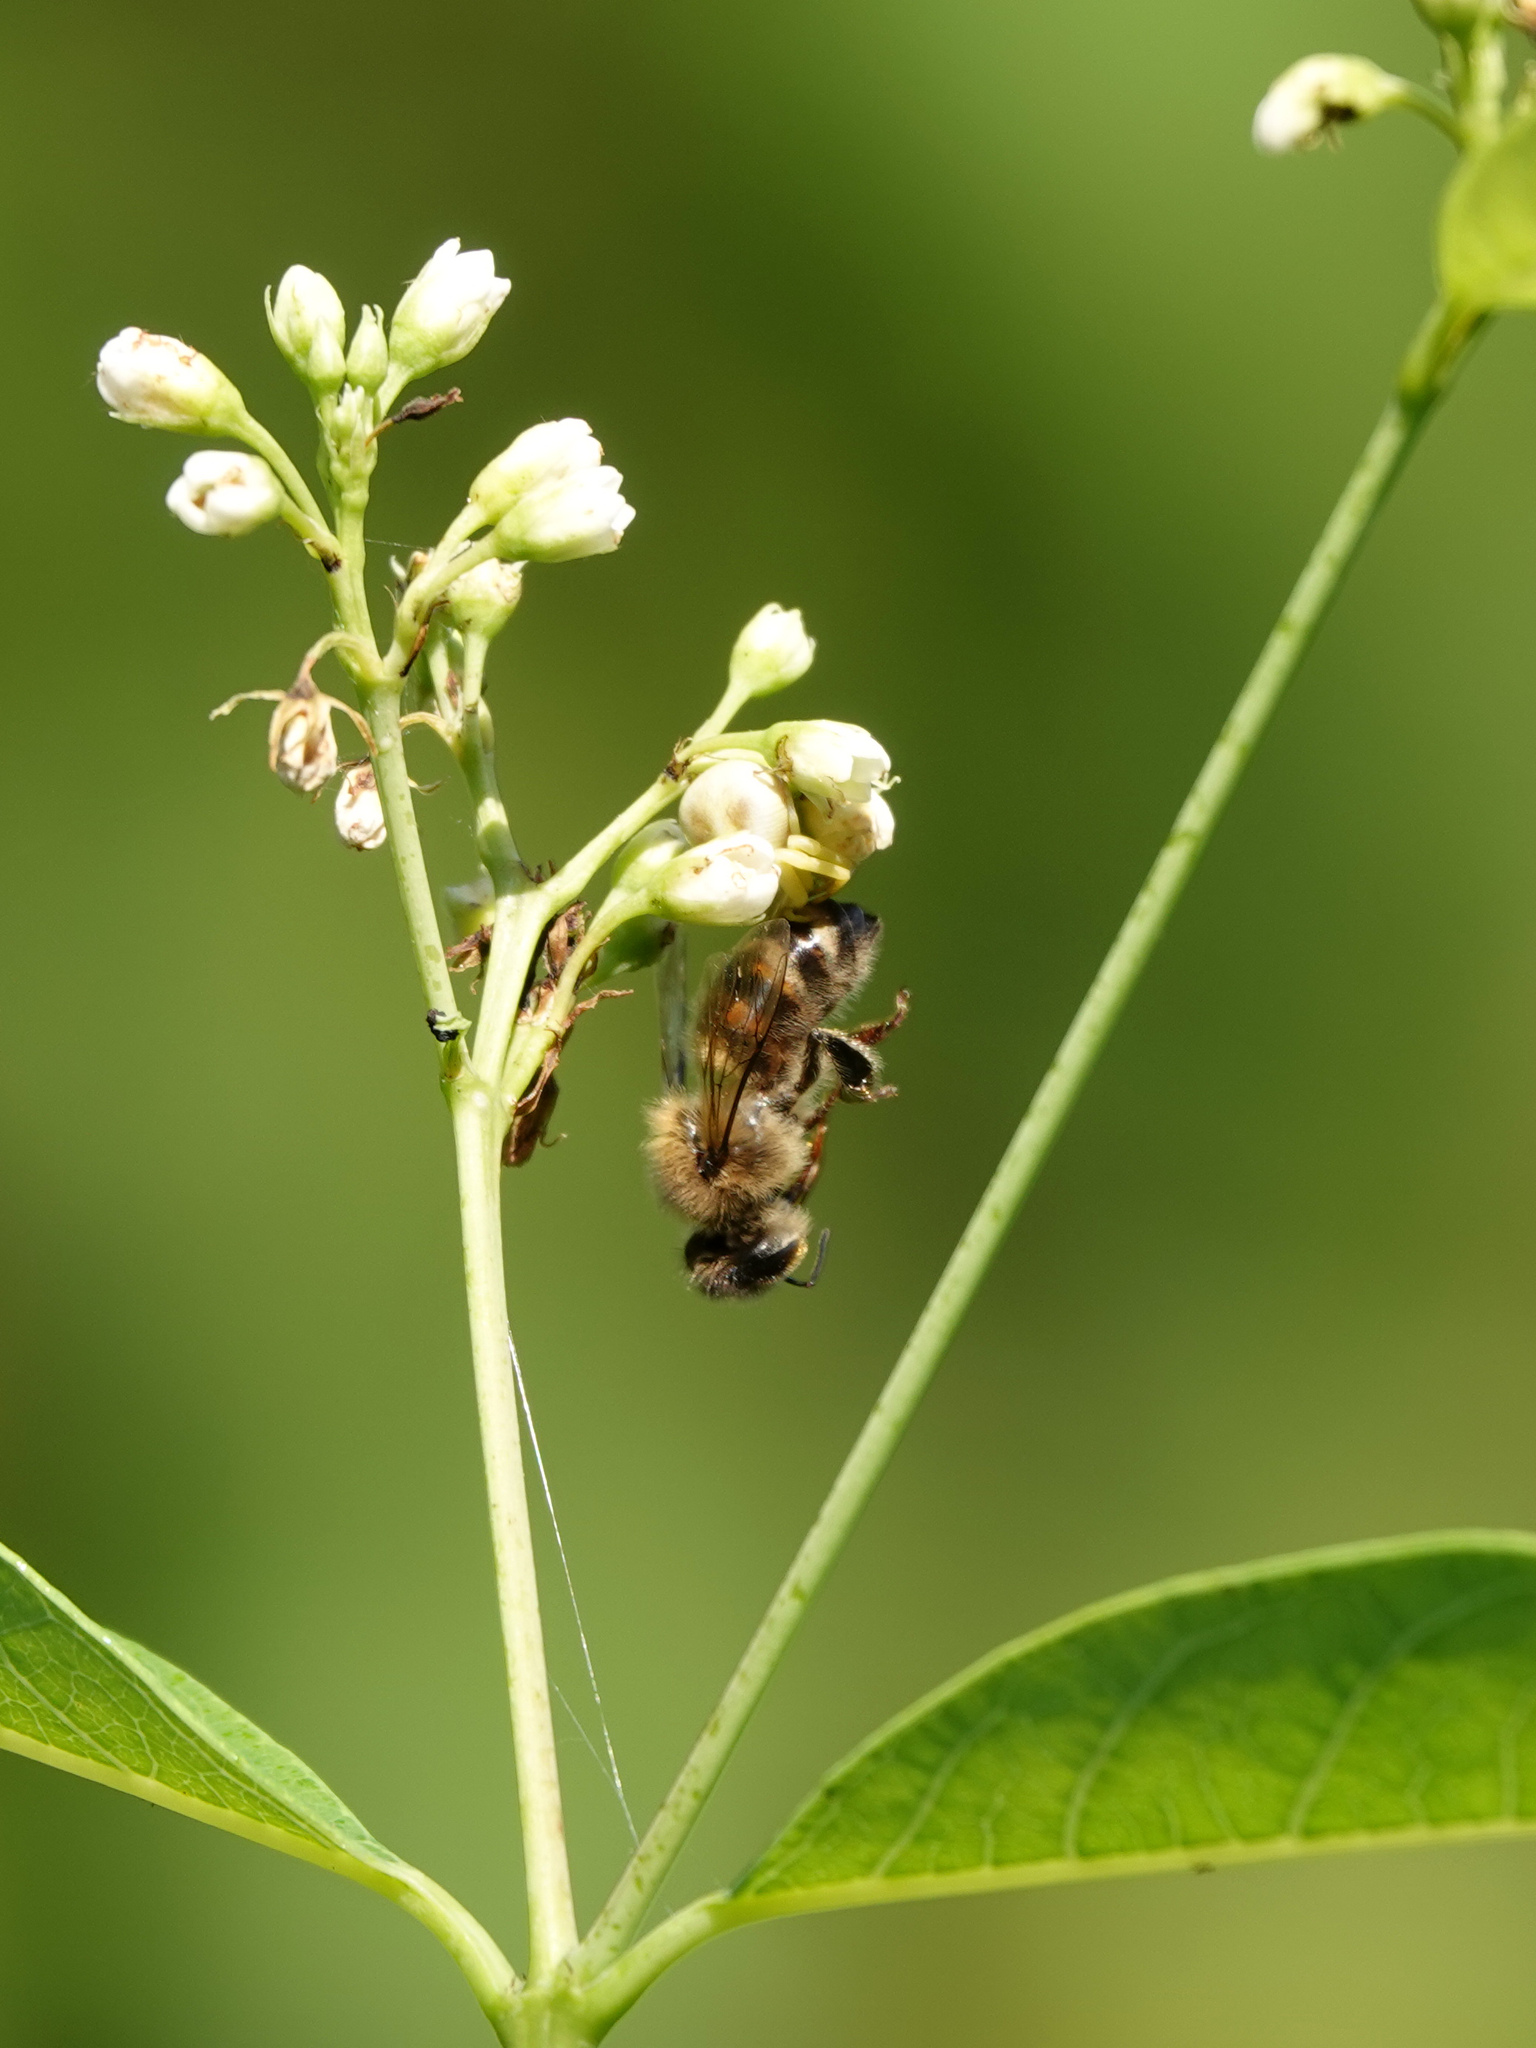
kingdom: Animalia
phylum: Arthropoda
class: Insecta
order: Hymenoptera
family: Apidae
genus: Apis
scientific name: Apis mellifera
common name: Honey bee
